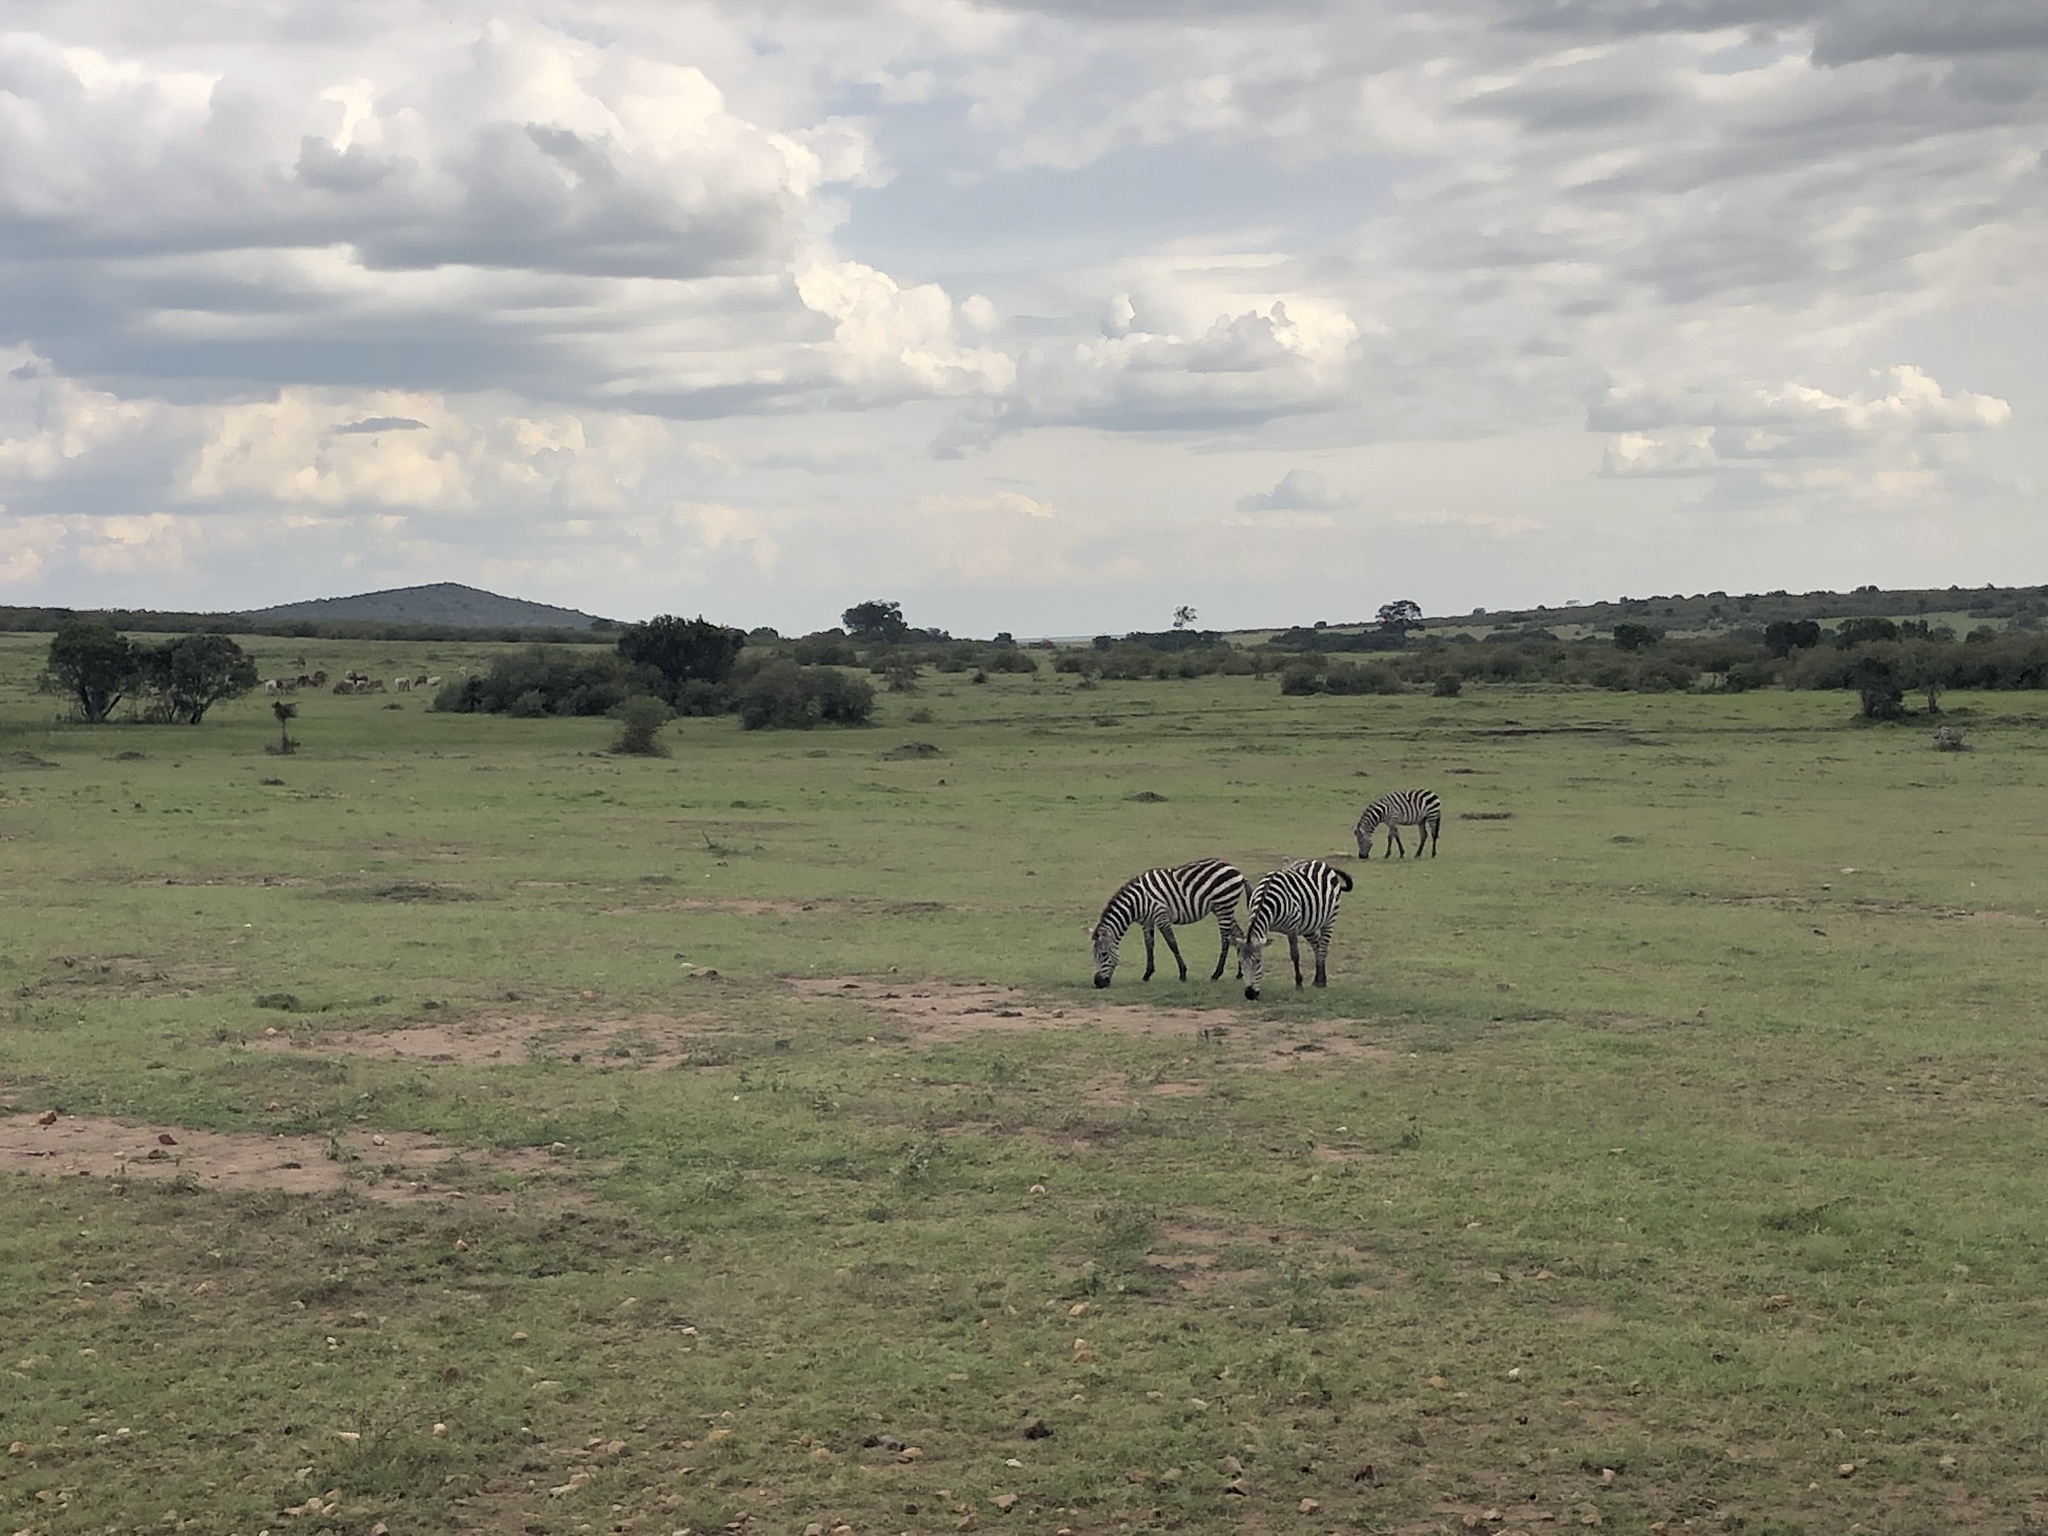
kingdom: Animalia
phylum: Chordata
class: Mammalia
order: Perissodactyla
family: Equidae
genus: Equus
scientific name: Equus quagga
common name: Plains zebra
